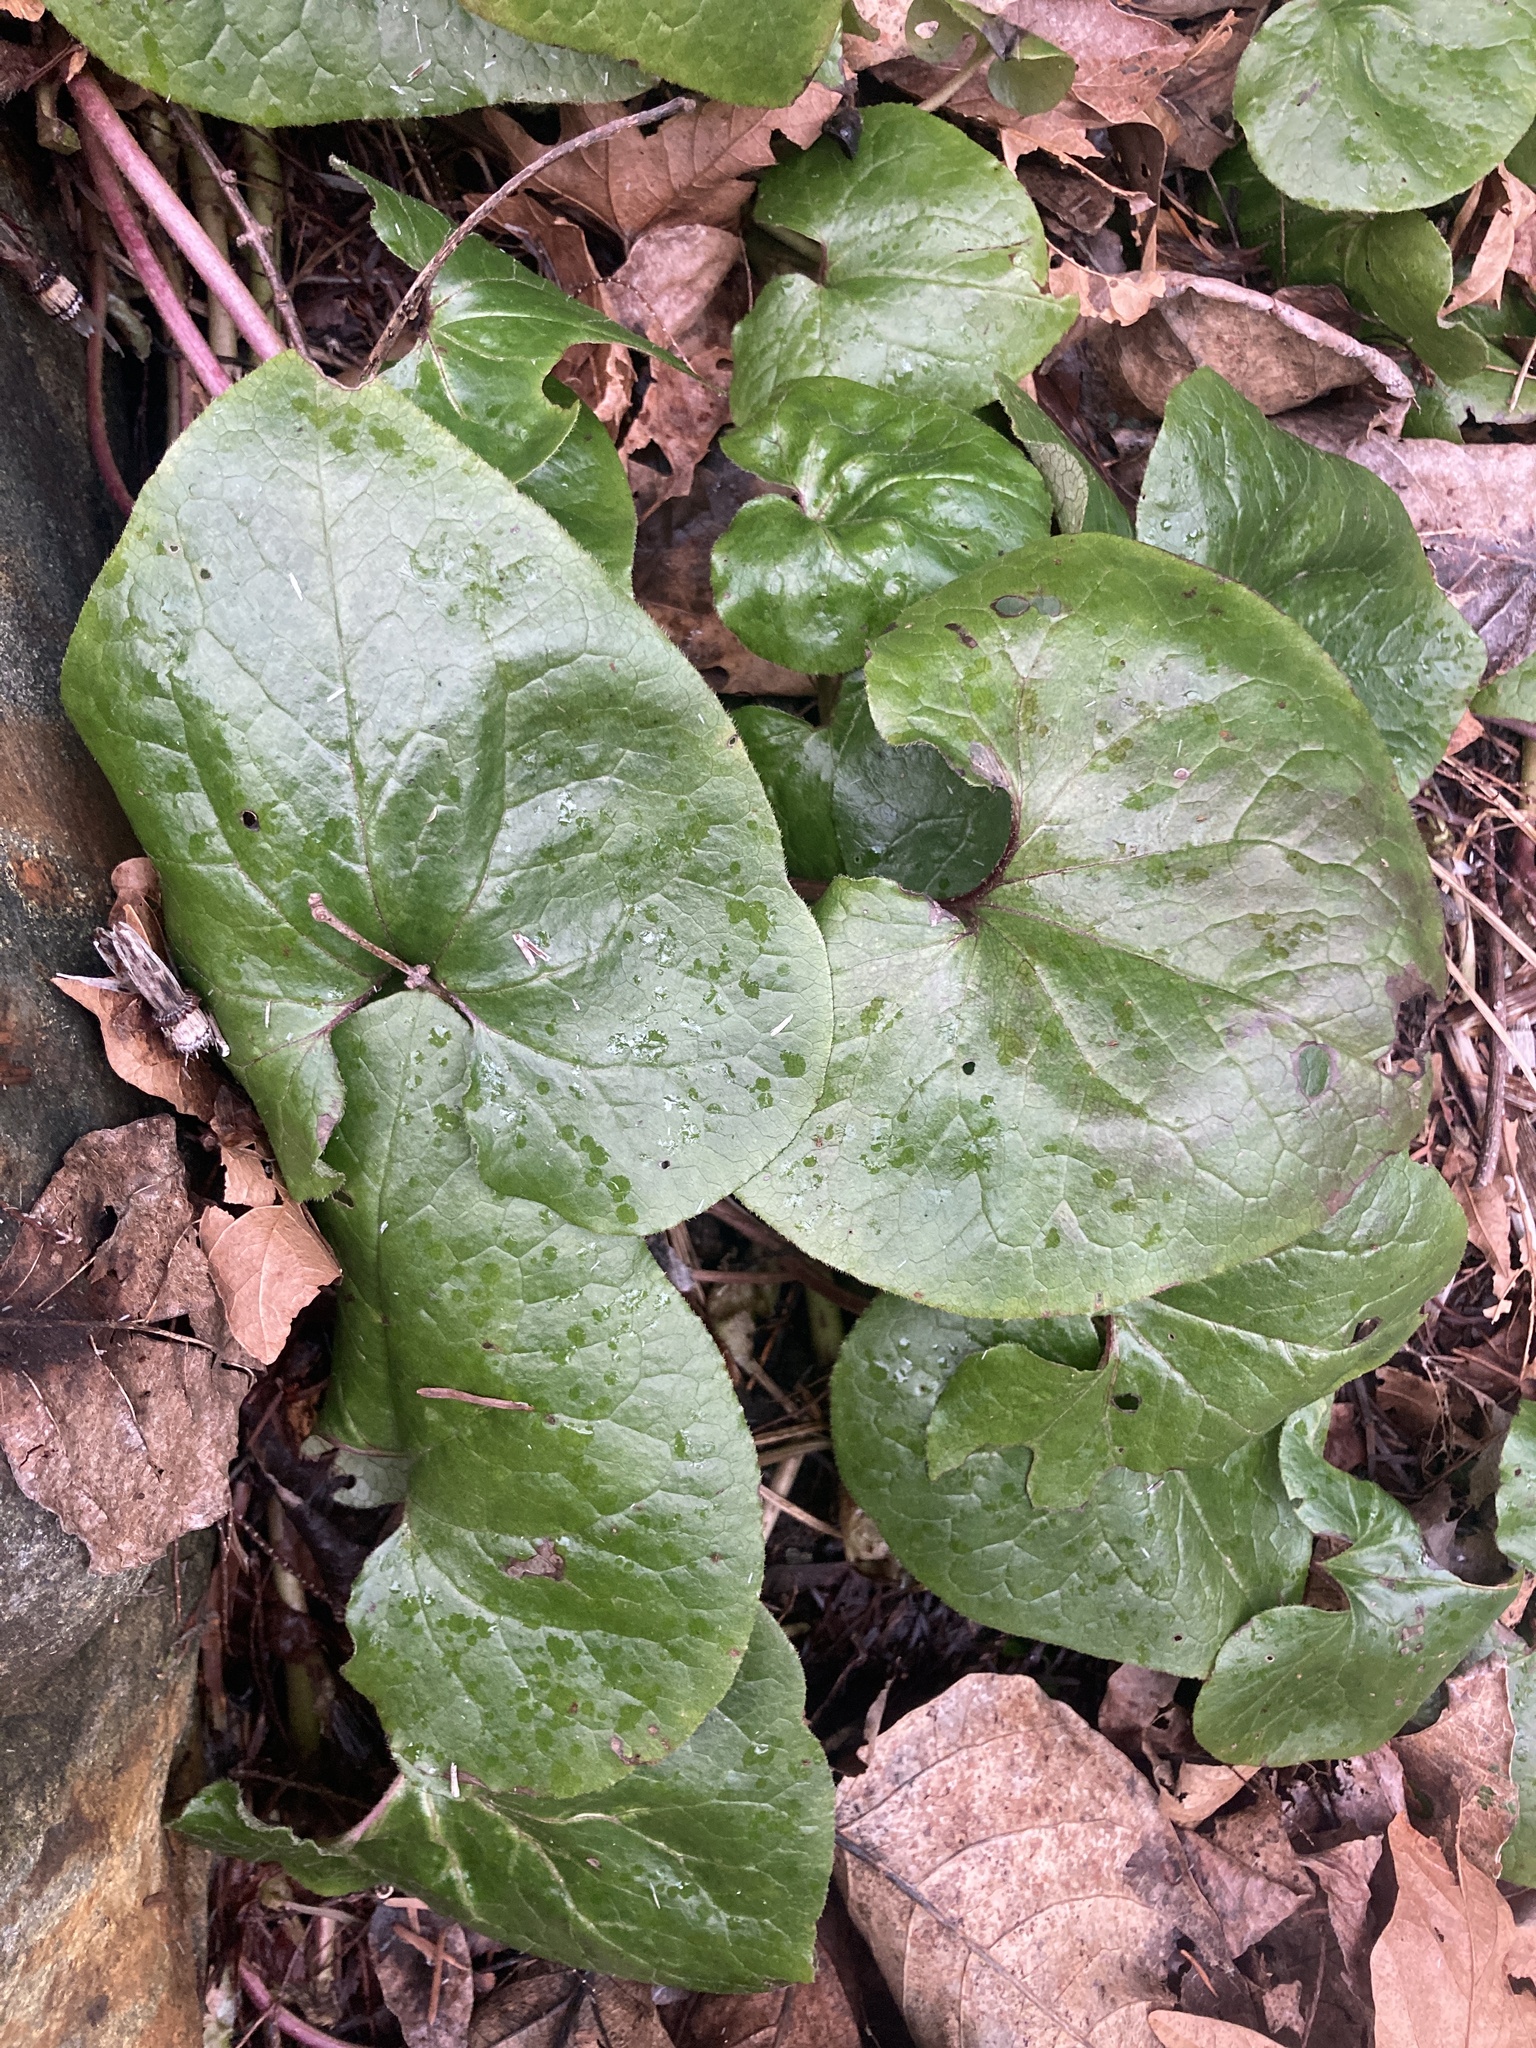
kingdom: Plantae
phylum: Tracheophyta
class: Magnoliopsida
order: Piperales
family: Aristolochiaceae
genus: Asarum
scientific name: Asarum caudatum
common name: Wild ginger
